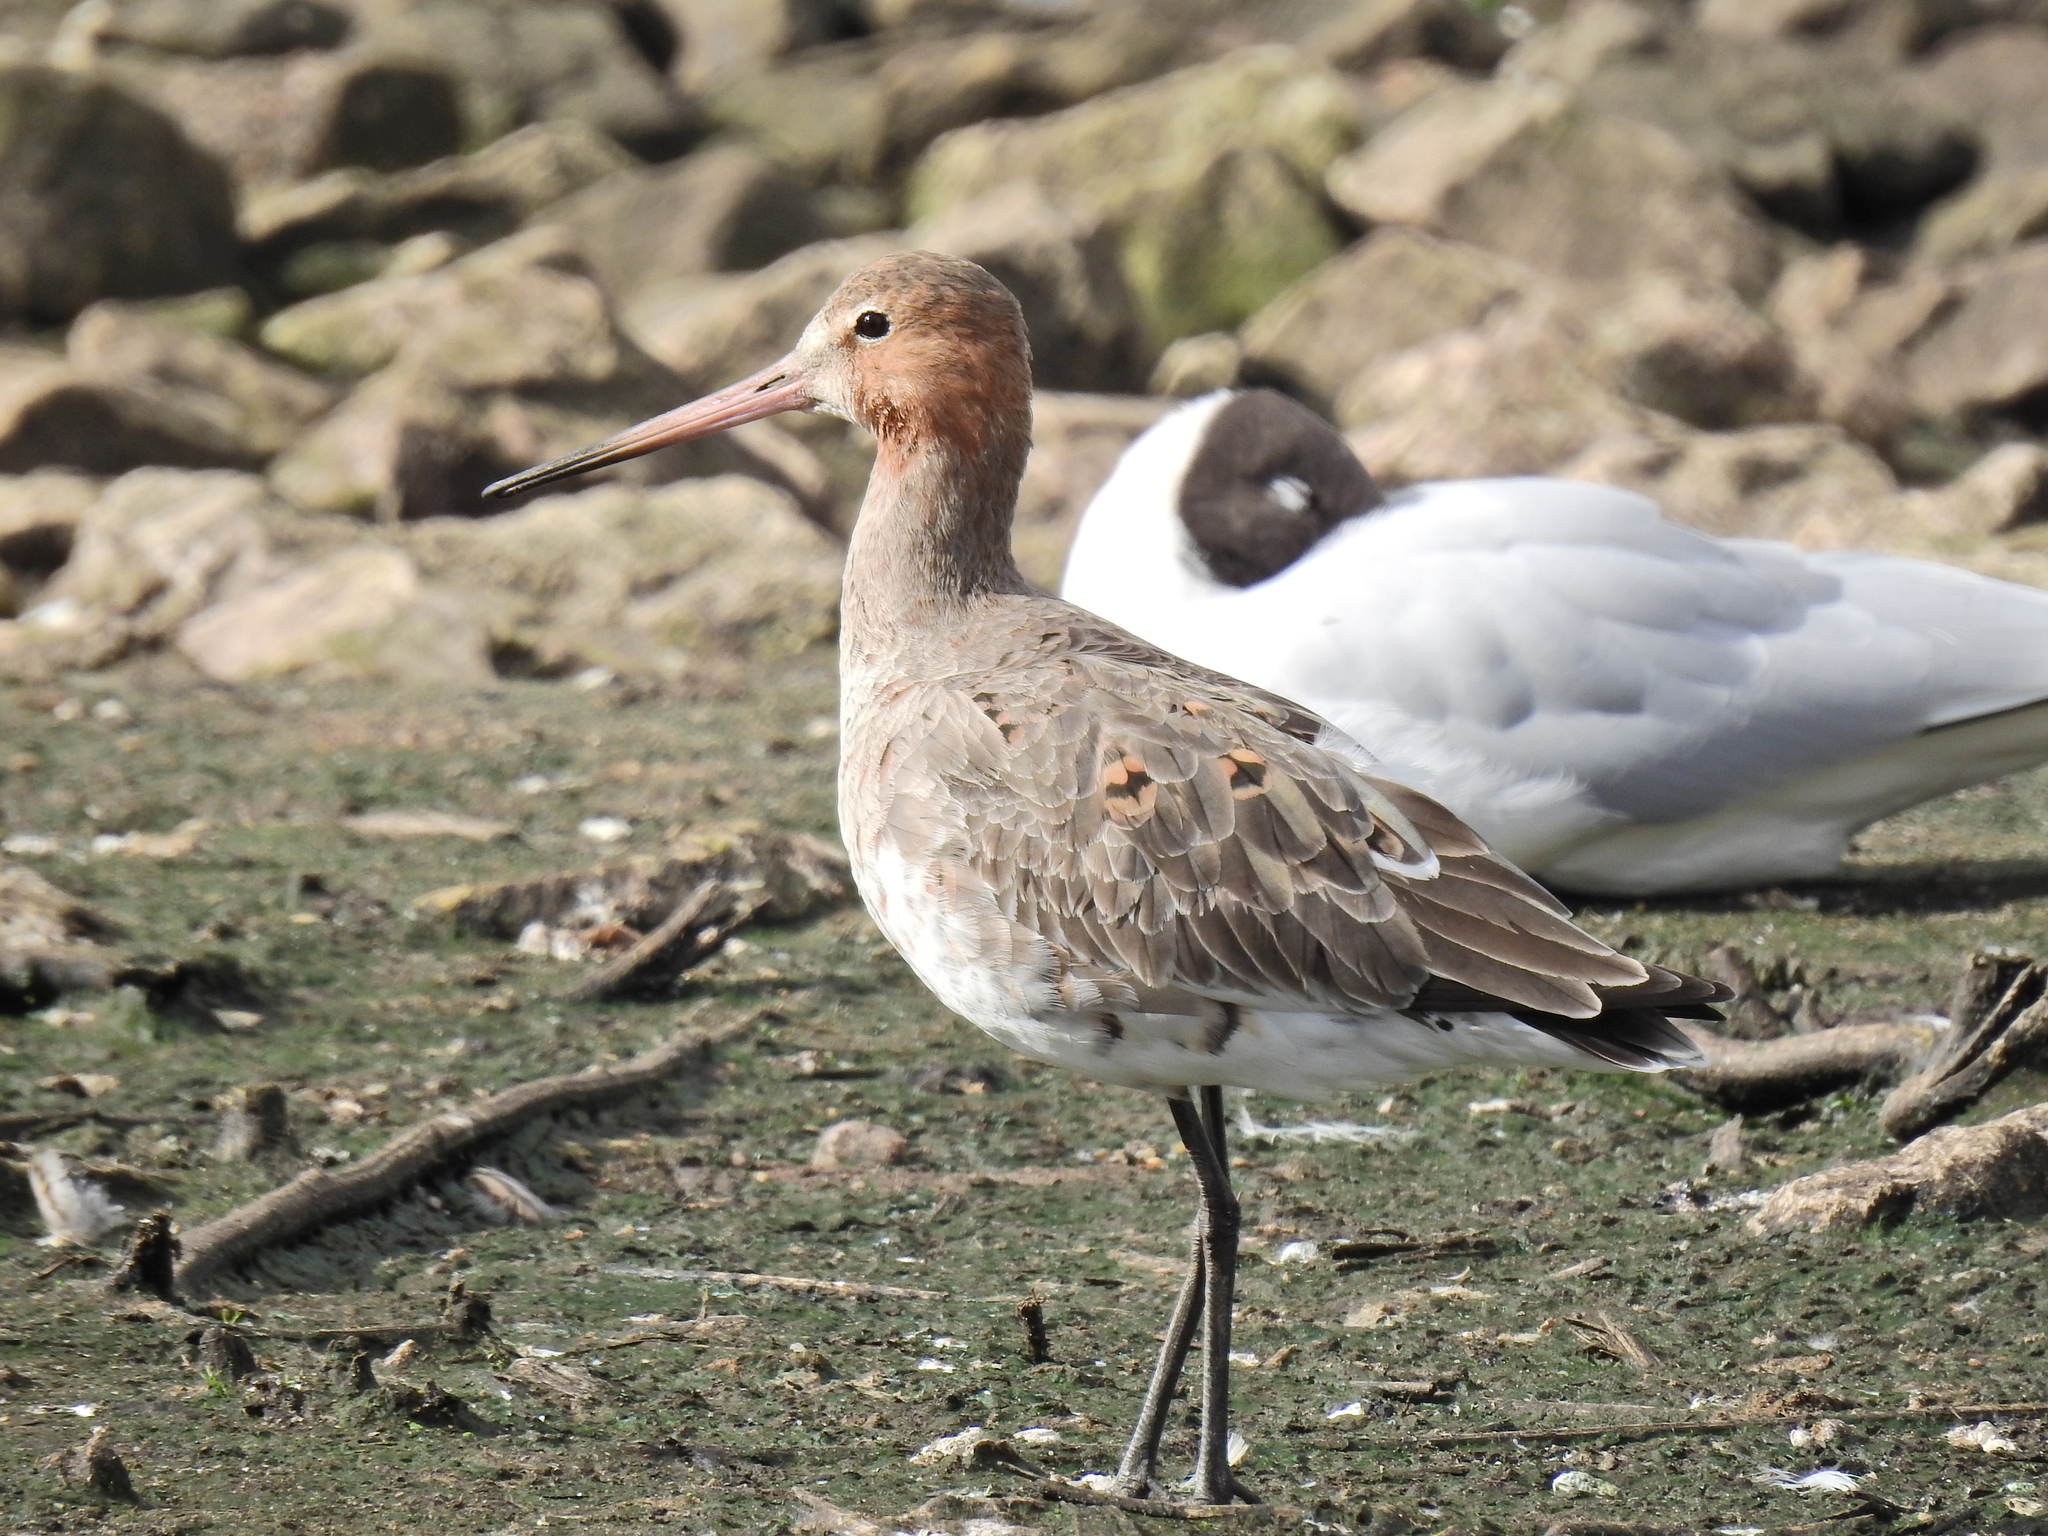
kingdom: Animalia
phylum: Chordata
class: Aves
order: Charadriiformes
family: Scolopacidae
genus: Limosa
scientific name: Limosa limosa
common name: Black-tailed godwit
